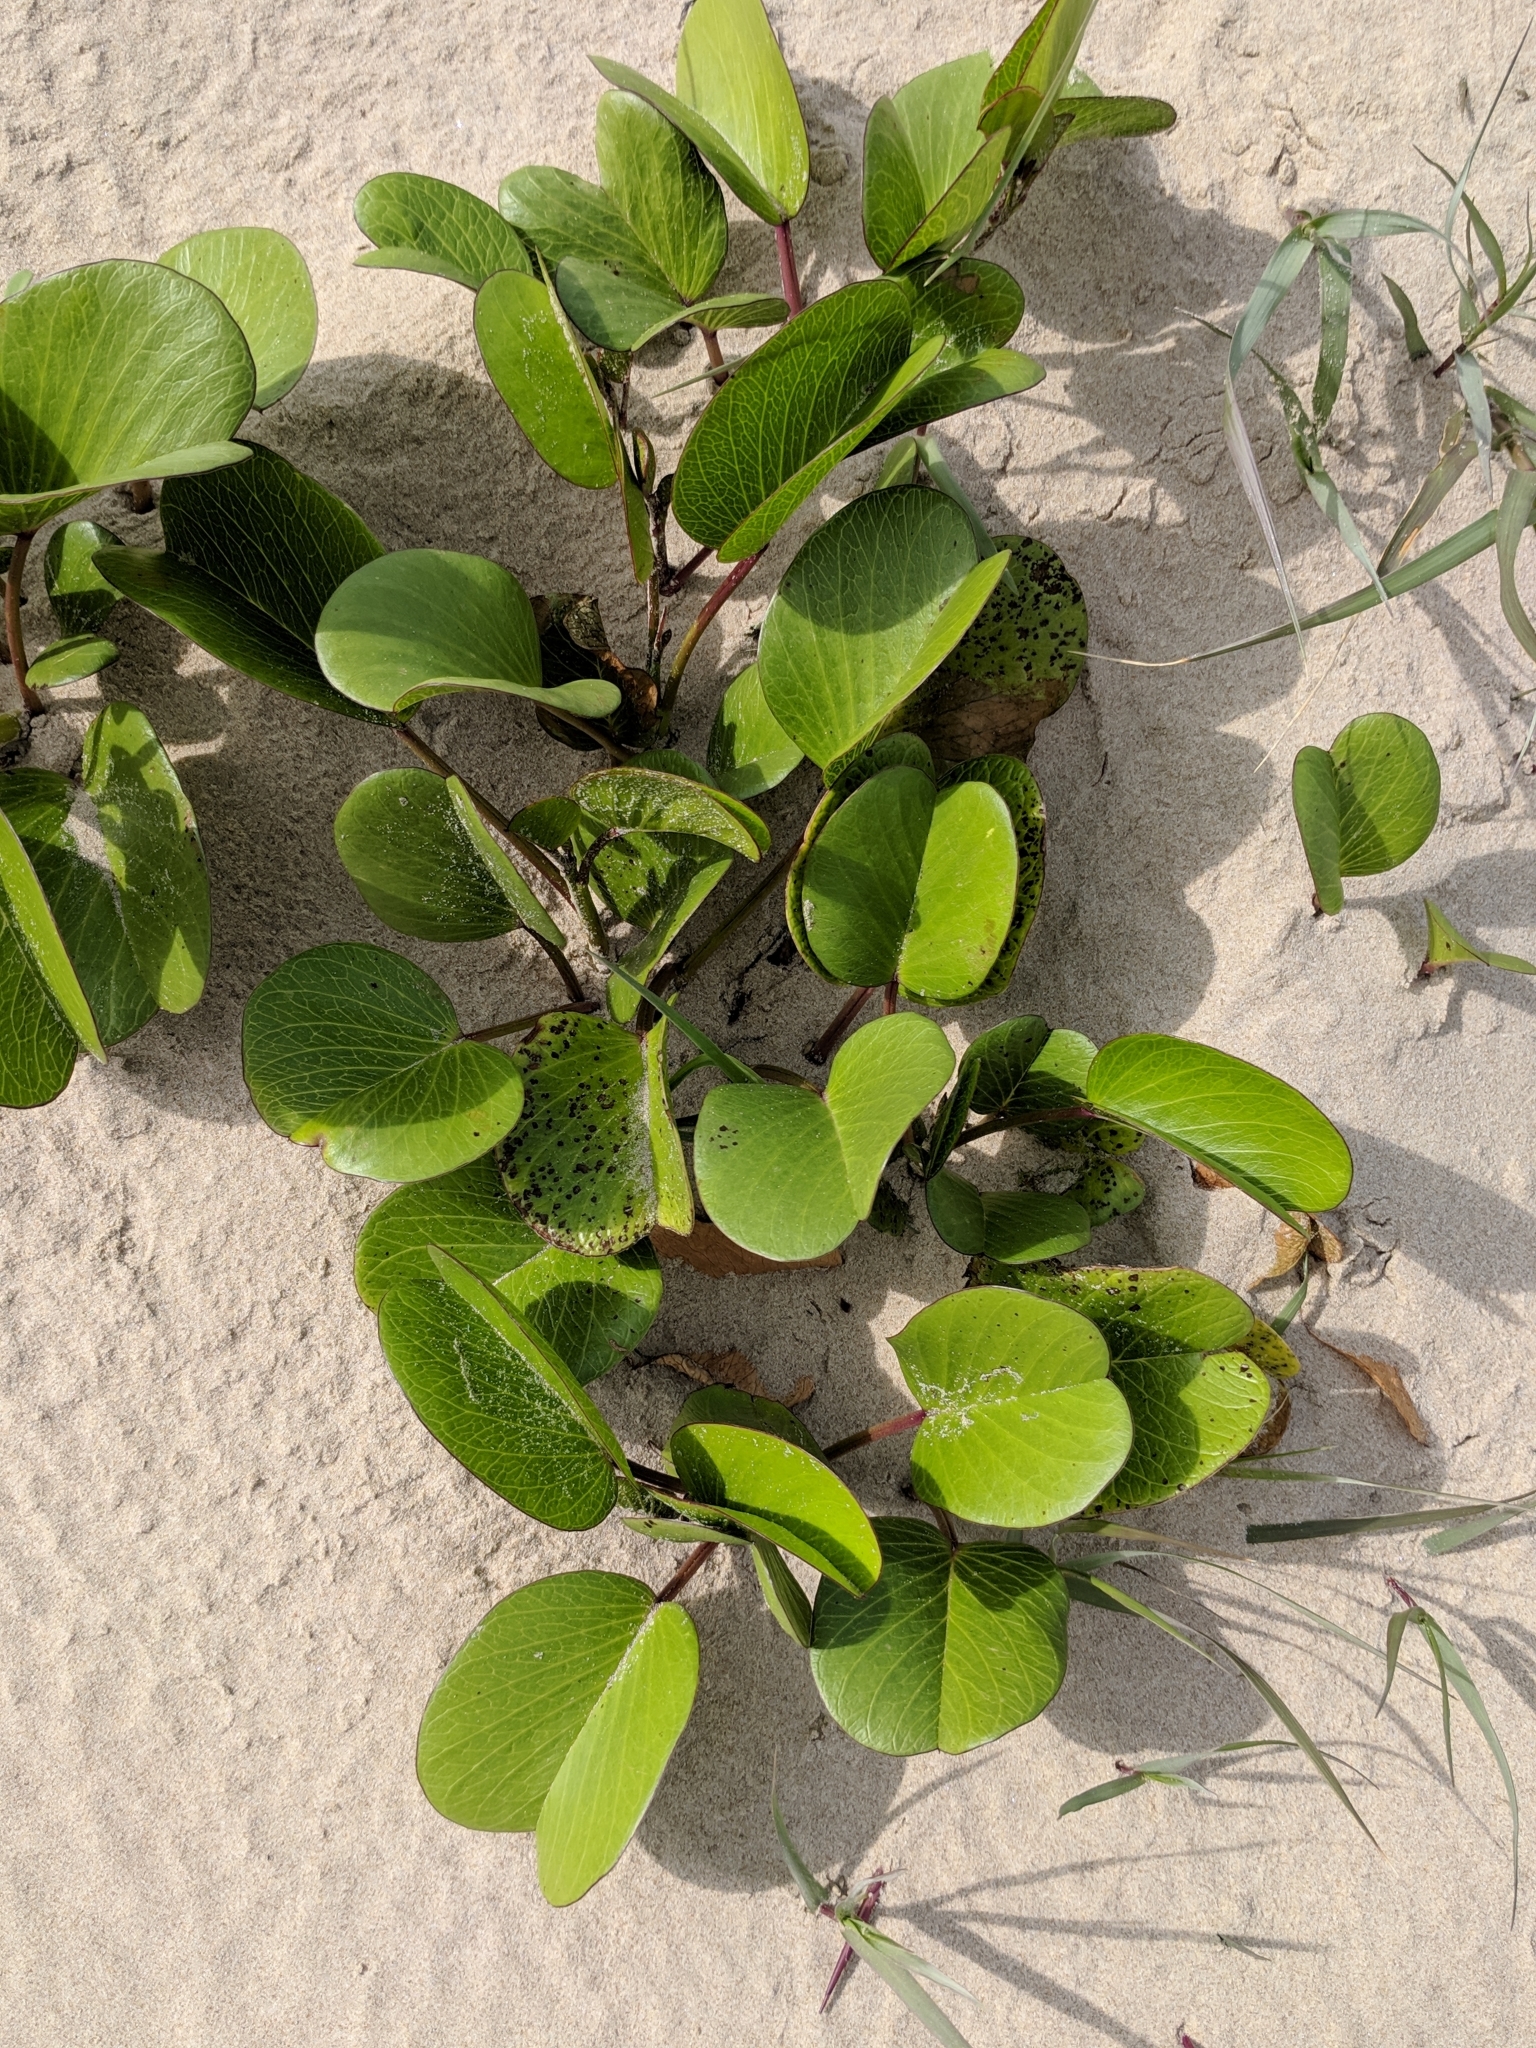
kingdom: Plantae
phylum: Tracheophyta
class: Magnoliopsida
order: Solanales
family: Convolvulaceae
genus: Ipomoea
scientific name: Ipomoea pes-caprae
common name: Beach morning glory
